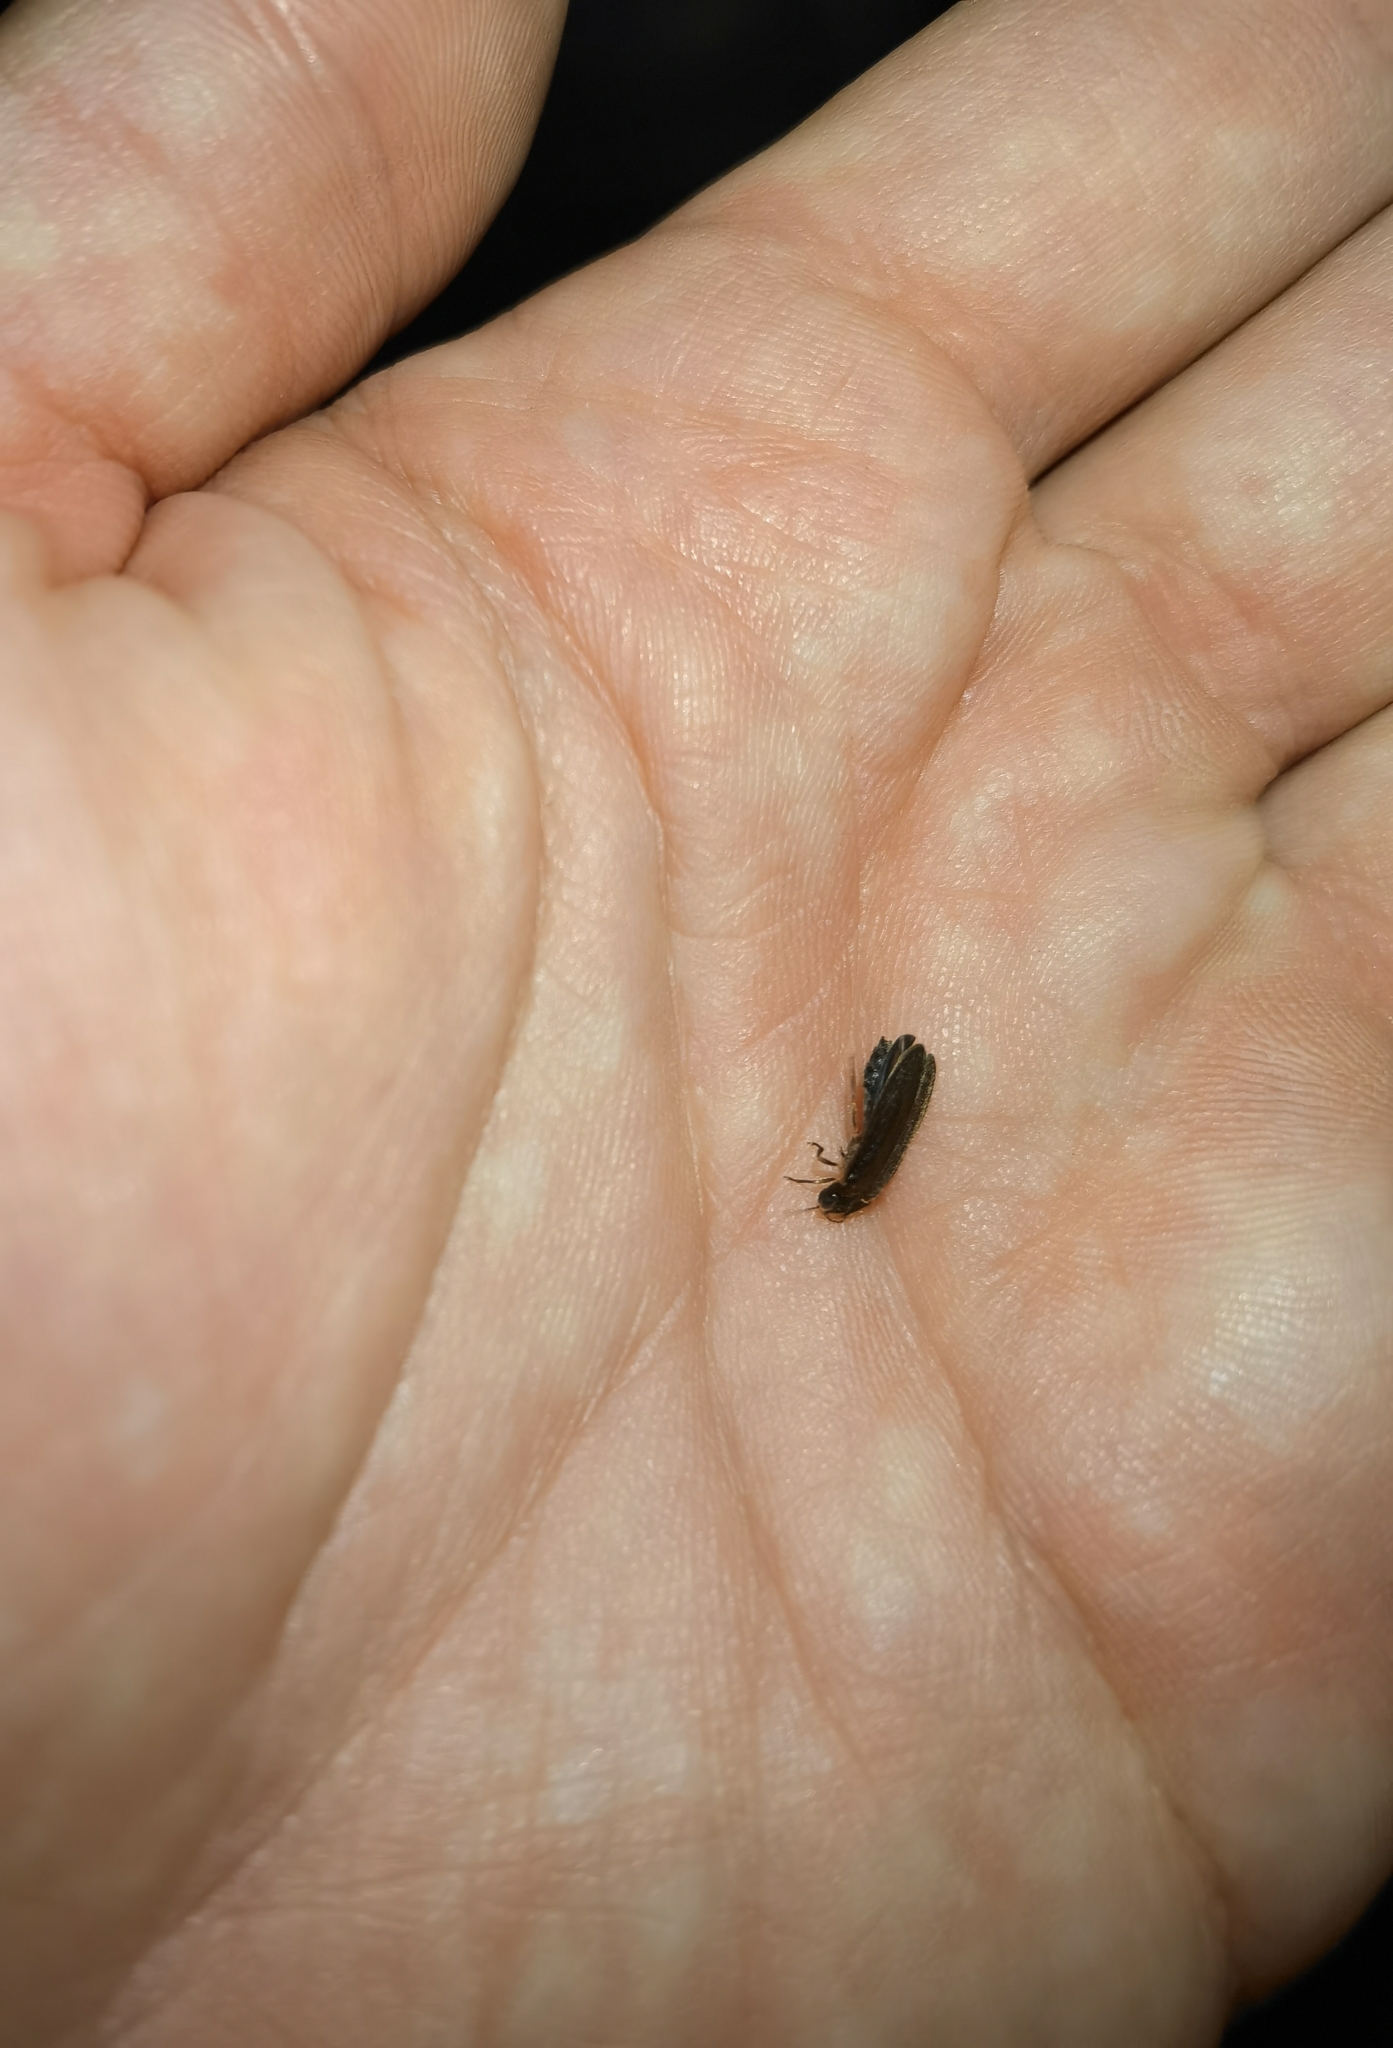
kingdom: Animalia
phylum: Arthropoda
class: Insecta
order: Coleoptera
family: Lampyridae
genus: Lamprohiza
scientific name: Lamprohiza splendidula
